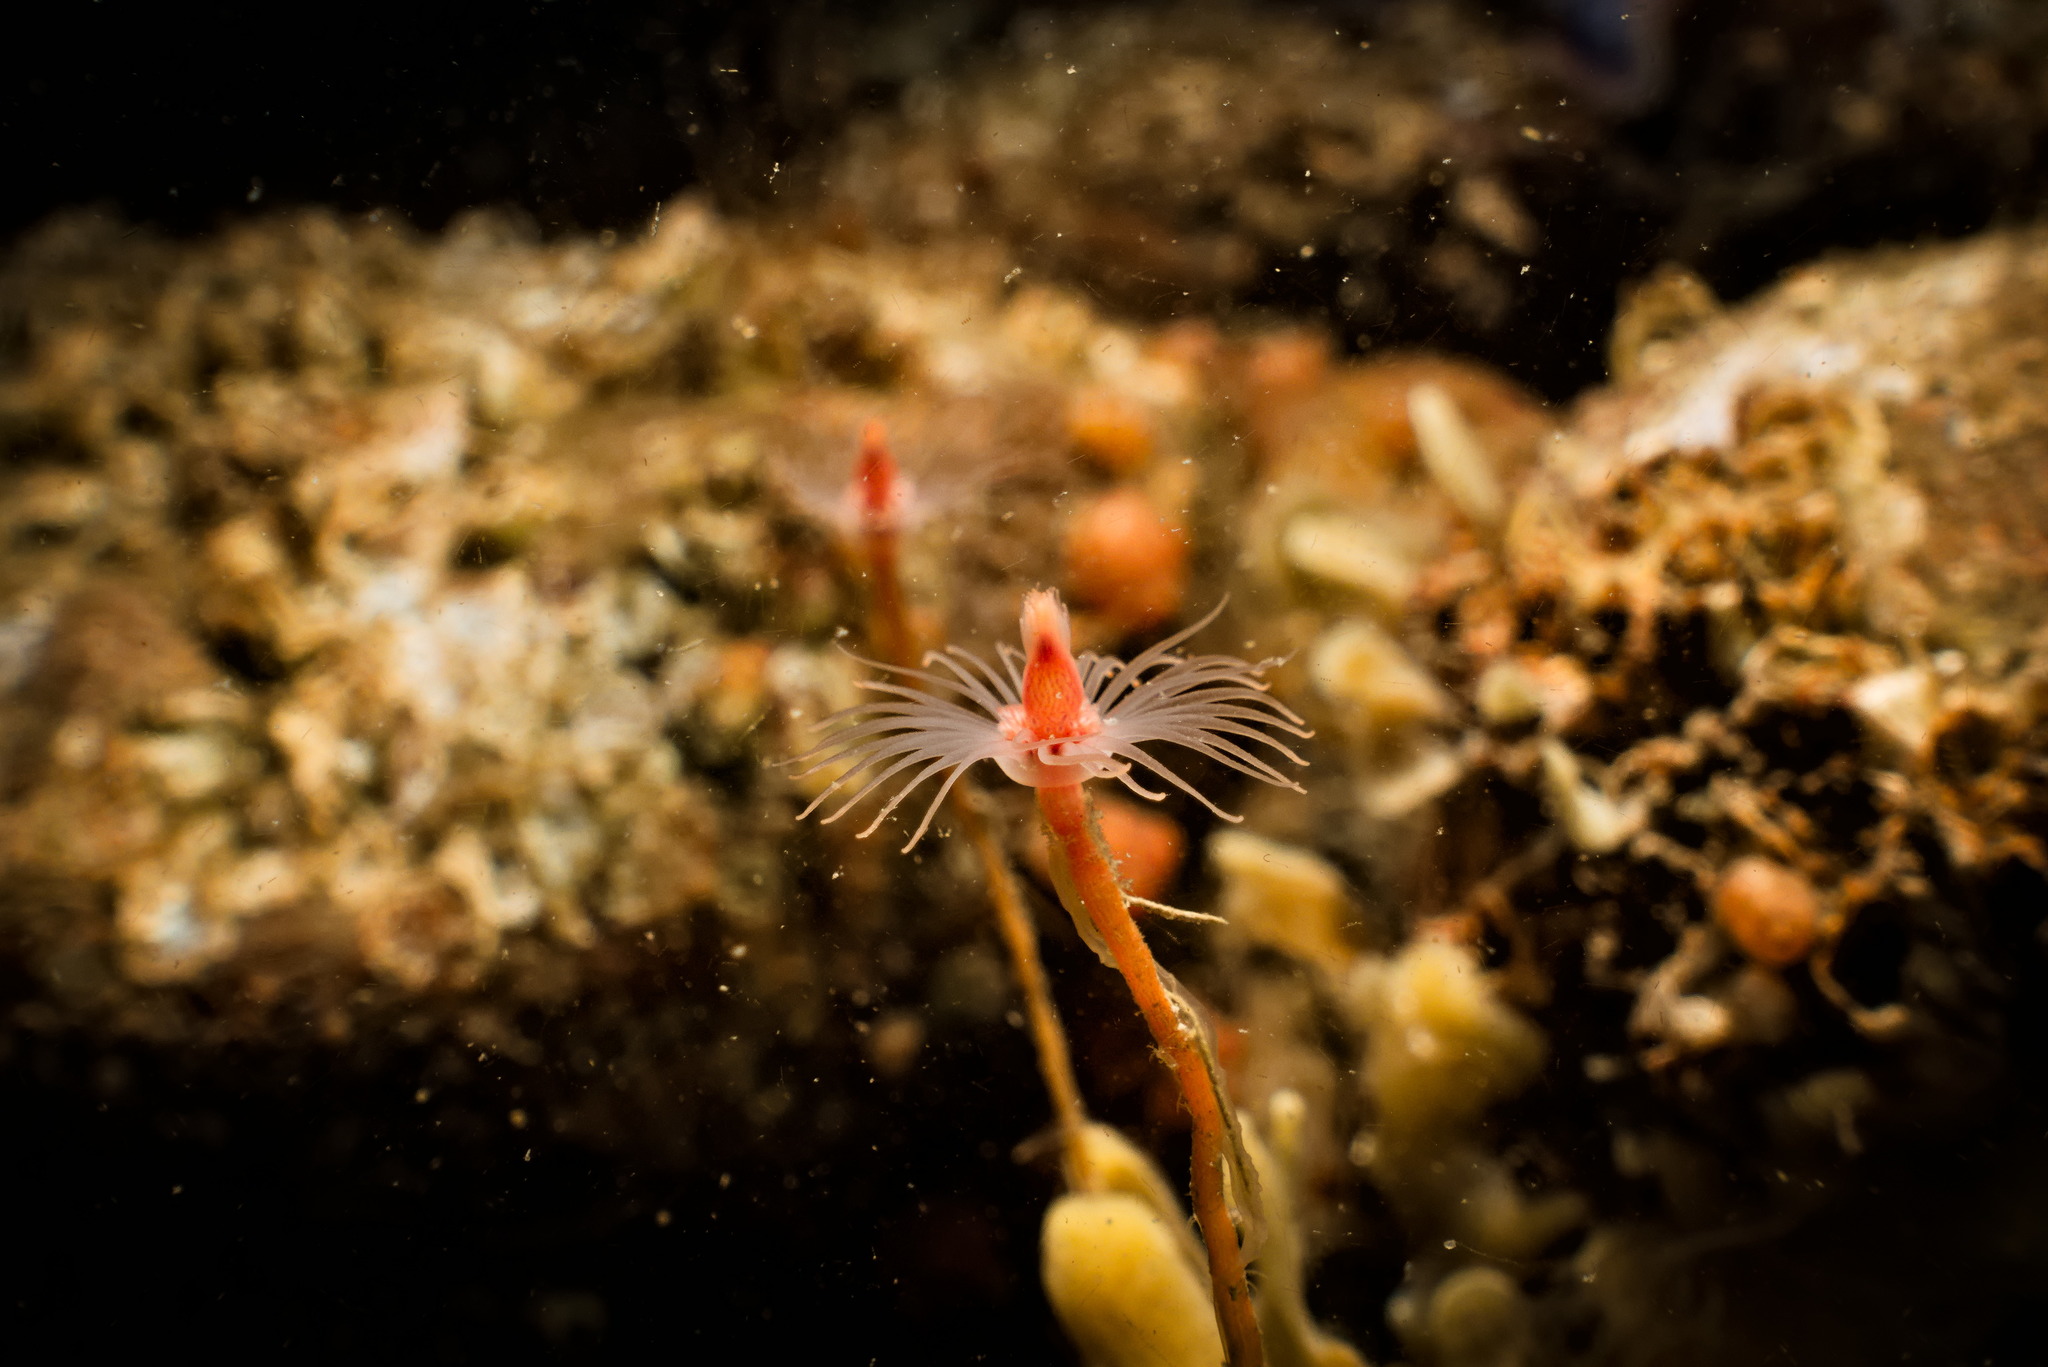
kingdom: Animalia
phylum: Cnidaria
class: Hydrozoa
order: Anthoathecata
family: Tubulariidae
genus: Tubularia
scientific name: Tubularia indivisa
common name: Oaten pipes hydroid
